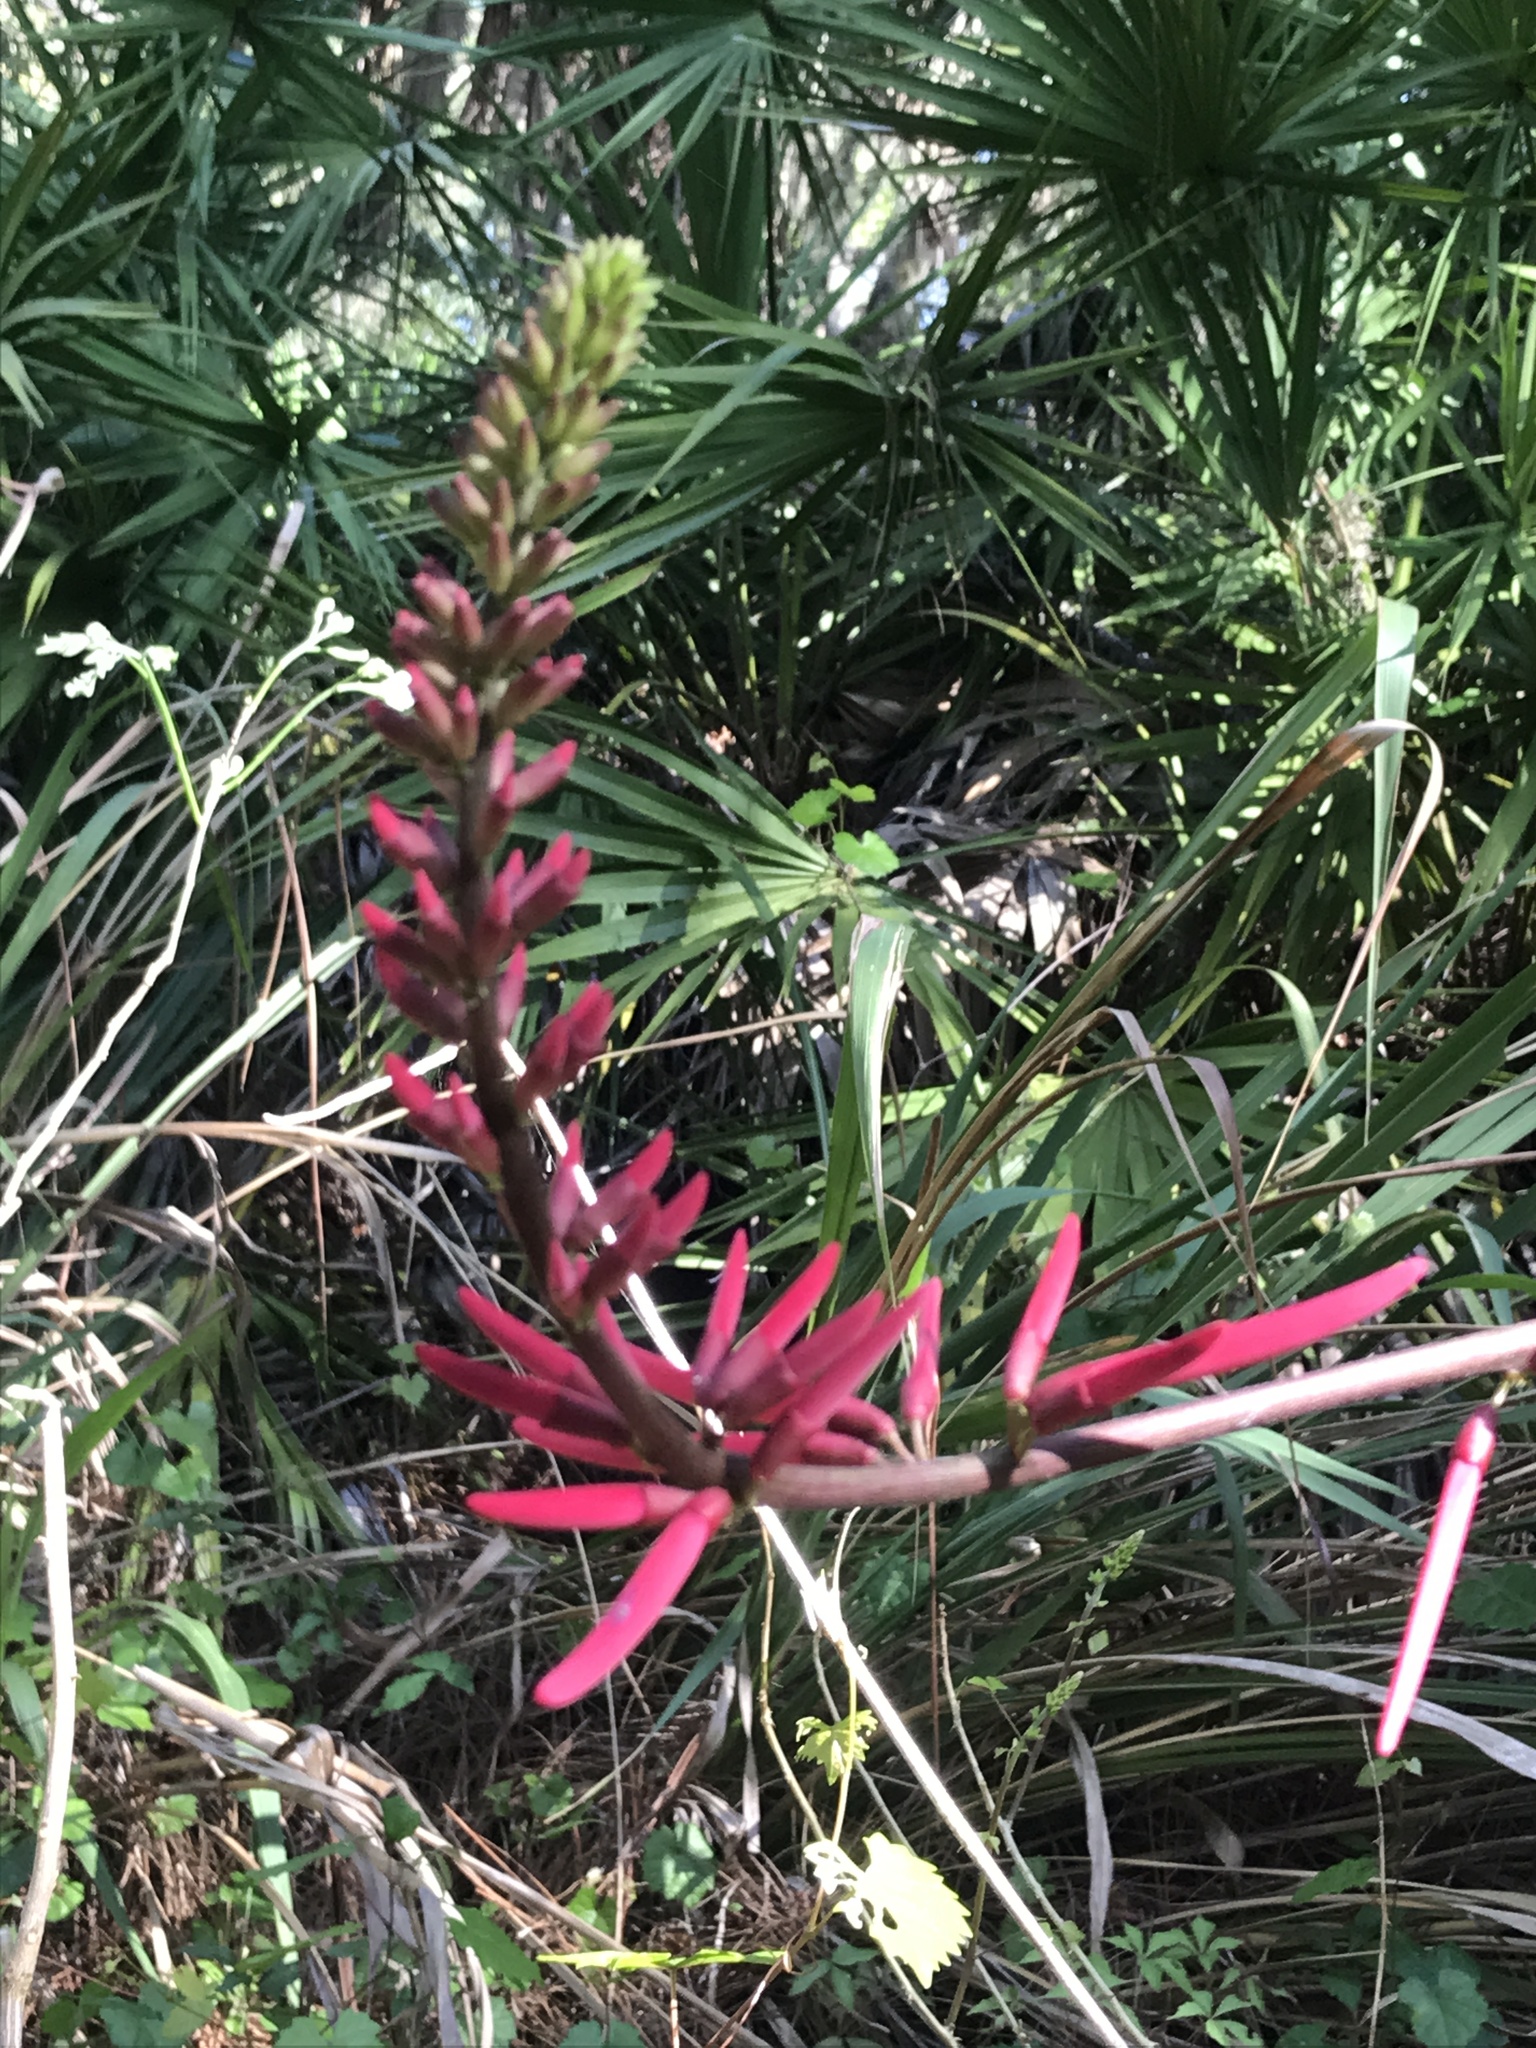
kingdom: Plantae
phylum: Tracheophyta
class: Magnoliopsida
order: Fabales
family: Fabaceae
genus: Erythrina
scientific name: Erythrina herbacea
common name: Coral-bean
